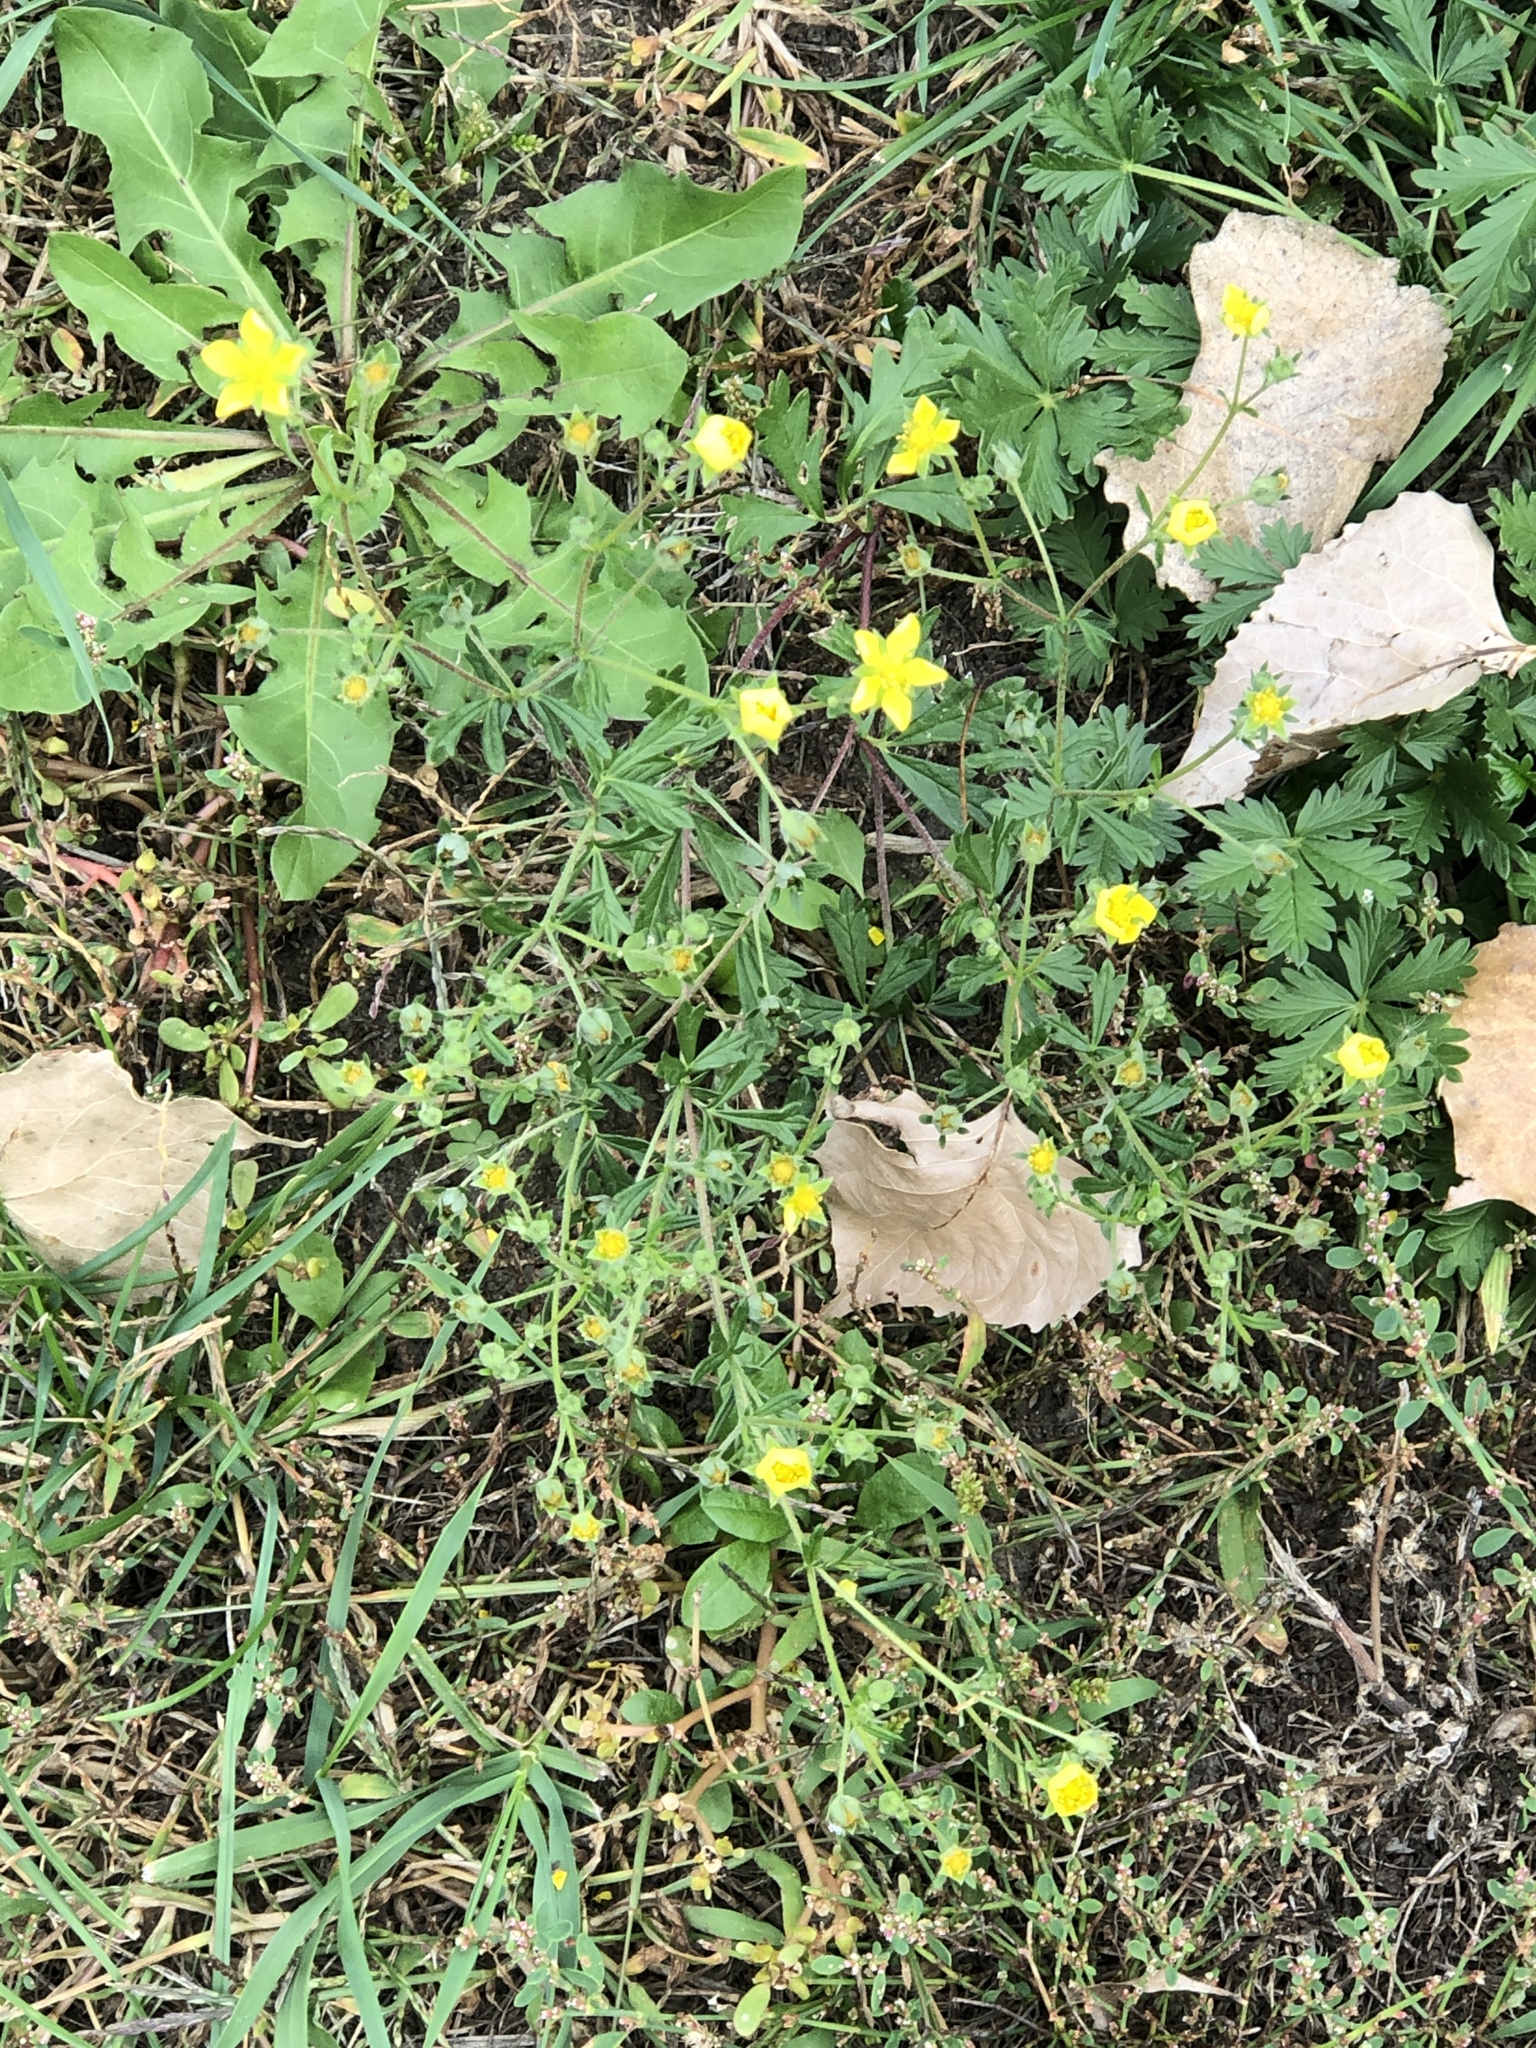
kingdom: Plantae
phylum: Tracheophyta
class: Magnoliopsida
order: Rosales
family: Rosaceae
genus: Potentilla
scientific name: Potentilla argentea
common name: Hoary cinquefoil
